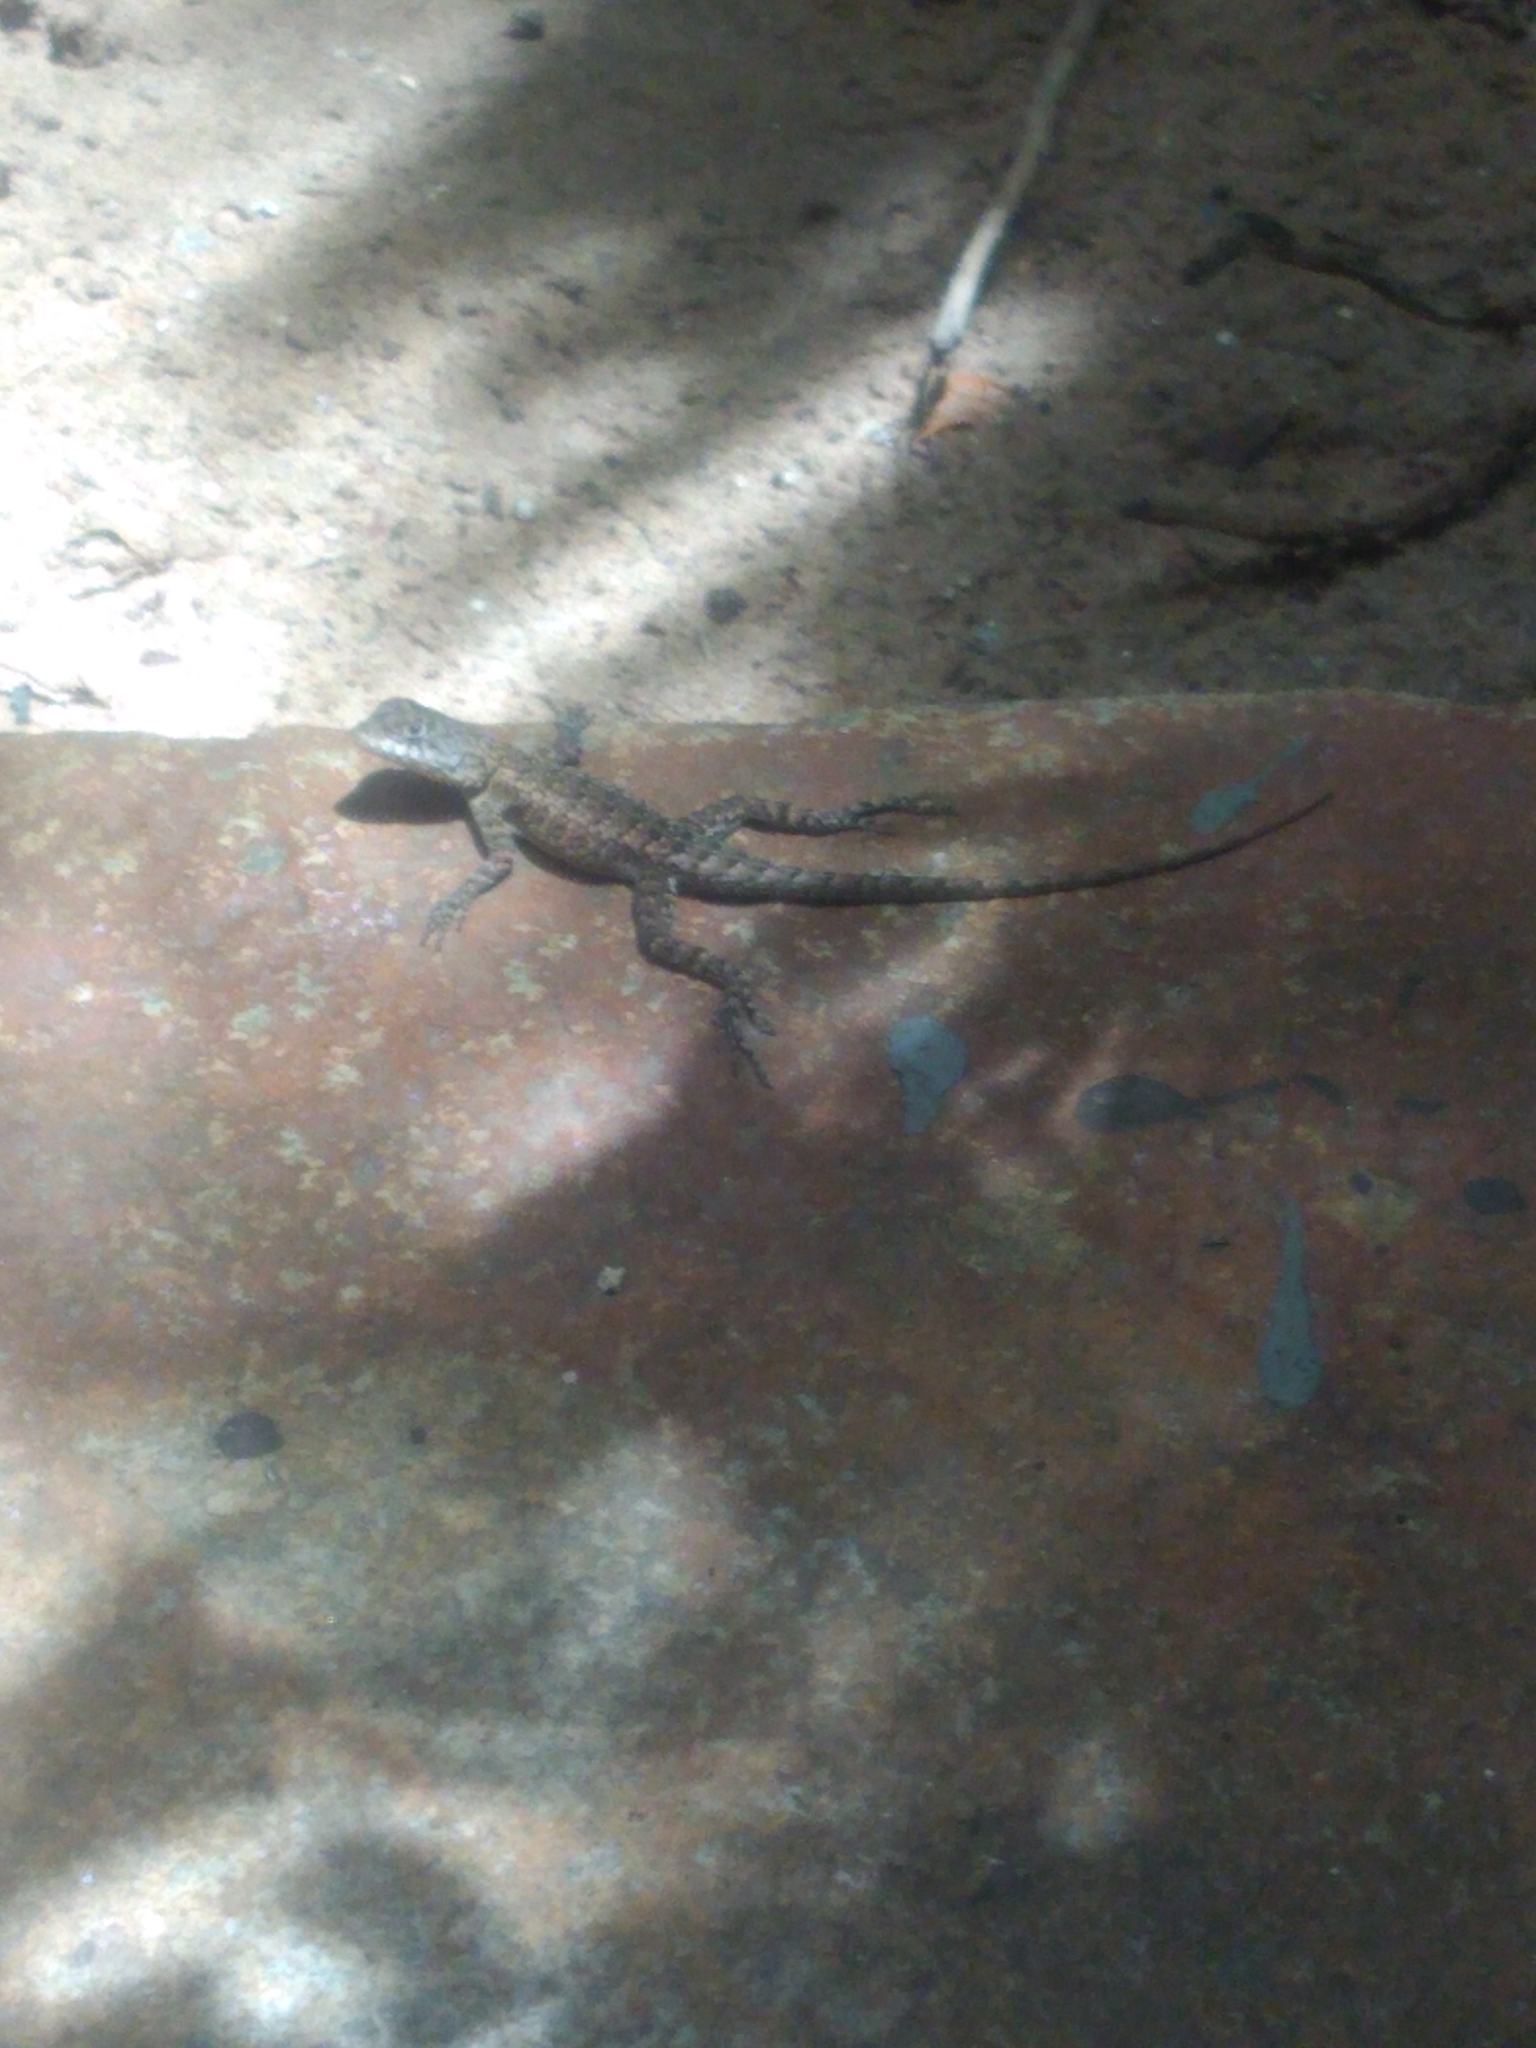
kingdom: Animalia
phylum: Chordata
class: Squamata
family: Tropiduridae
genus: Tropidurus
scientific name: Tropidurus hispidus
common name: Peters' lava lizard
